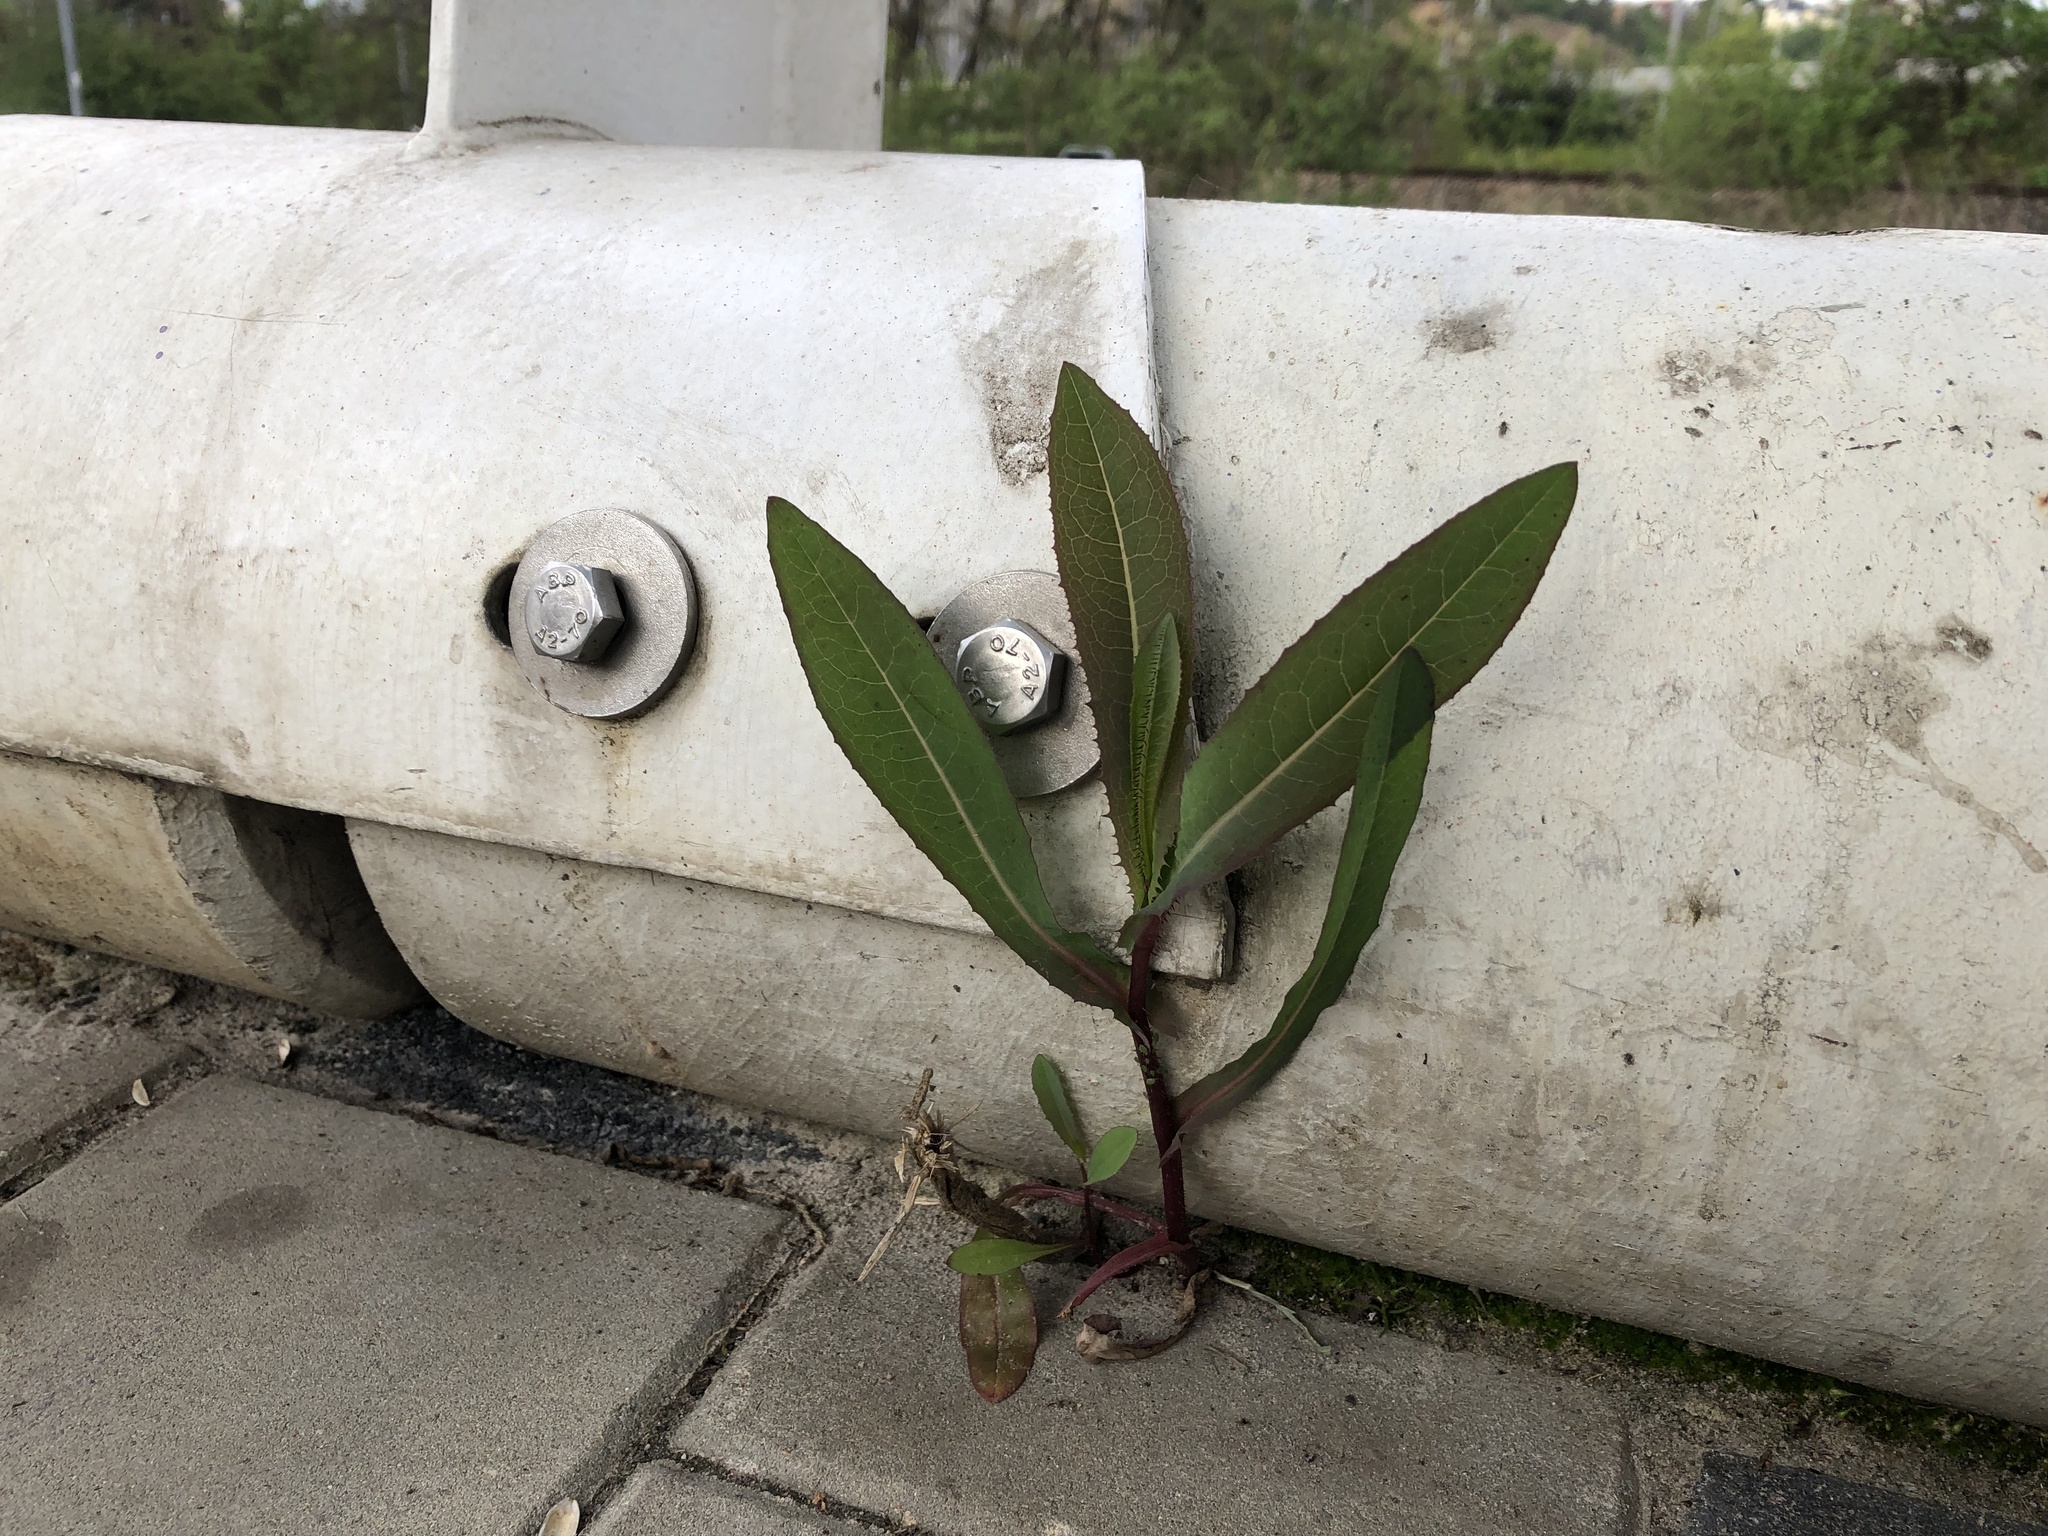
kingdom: Plantae
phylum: Tracheophyta
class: Magnoliopsida
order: Asterales
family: Asteraceae
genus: Lactuca
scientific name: Lactuca serriola
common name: Prickly lettuce
